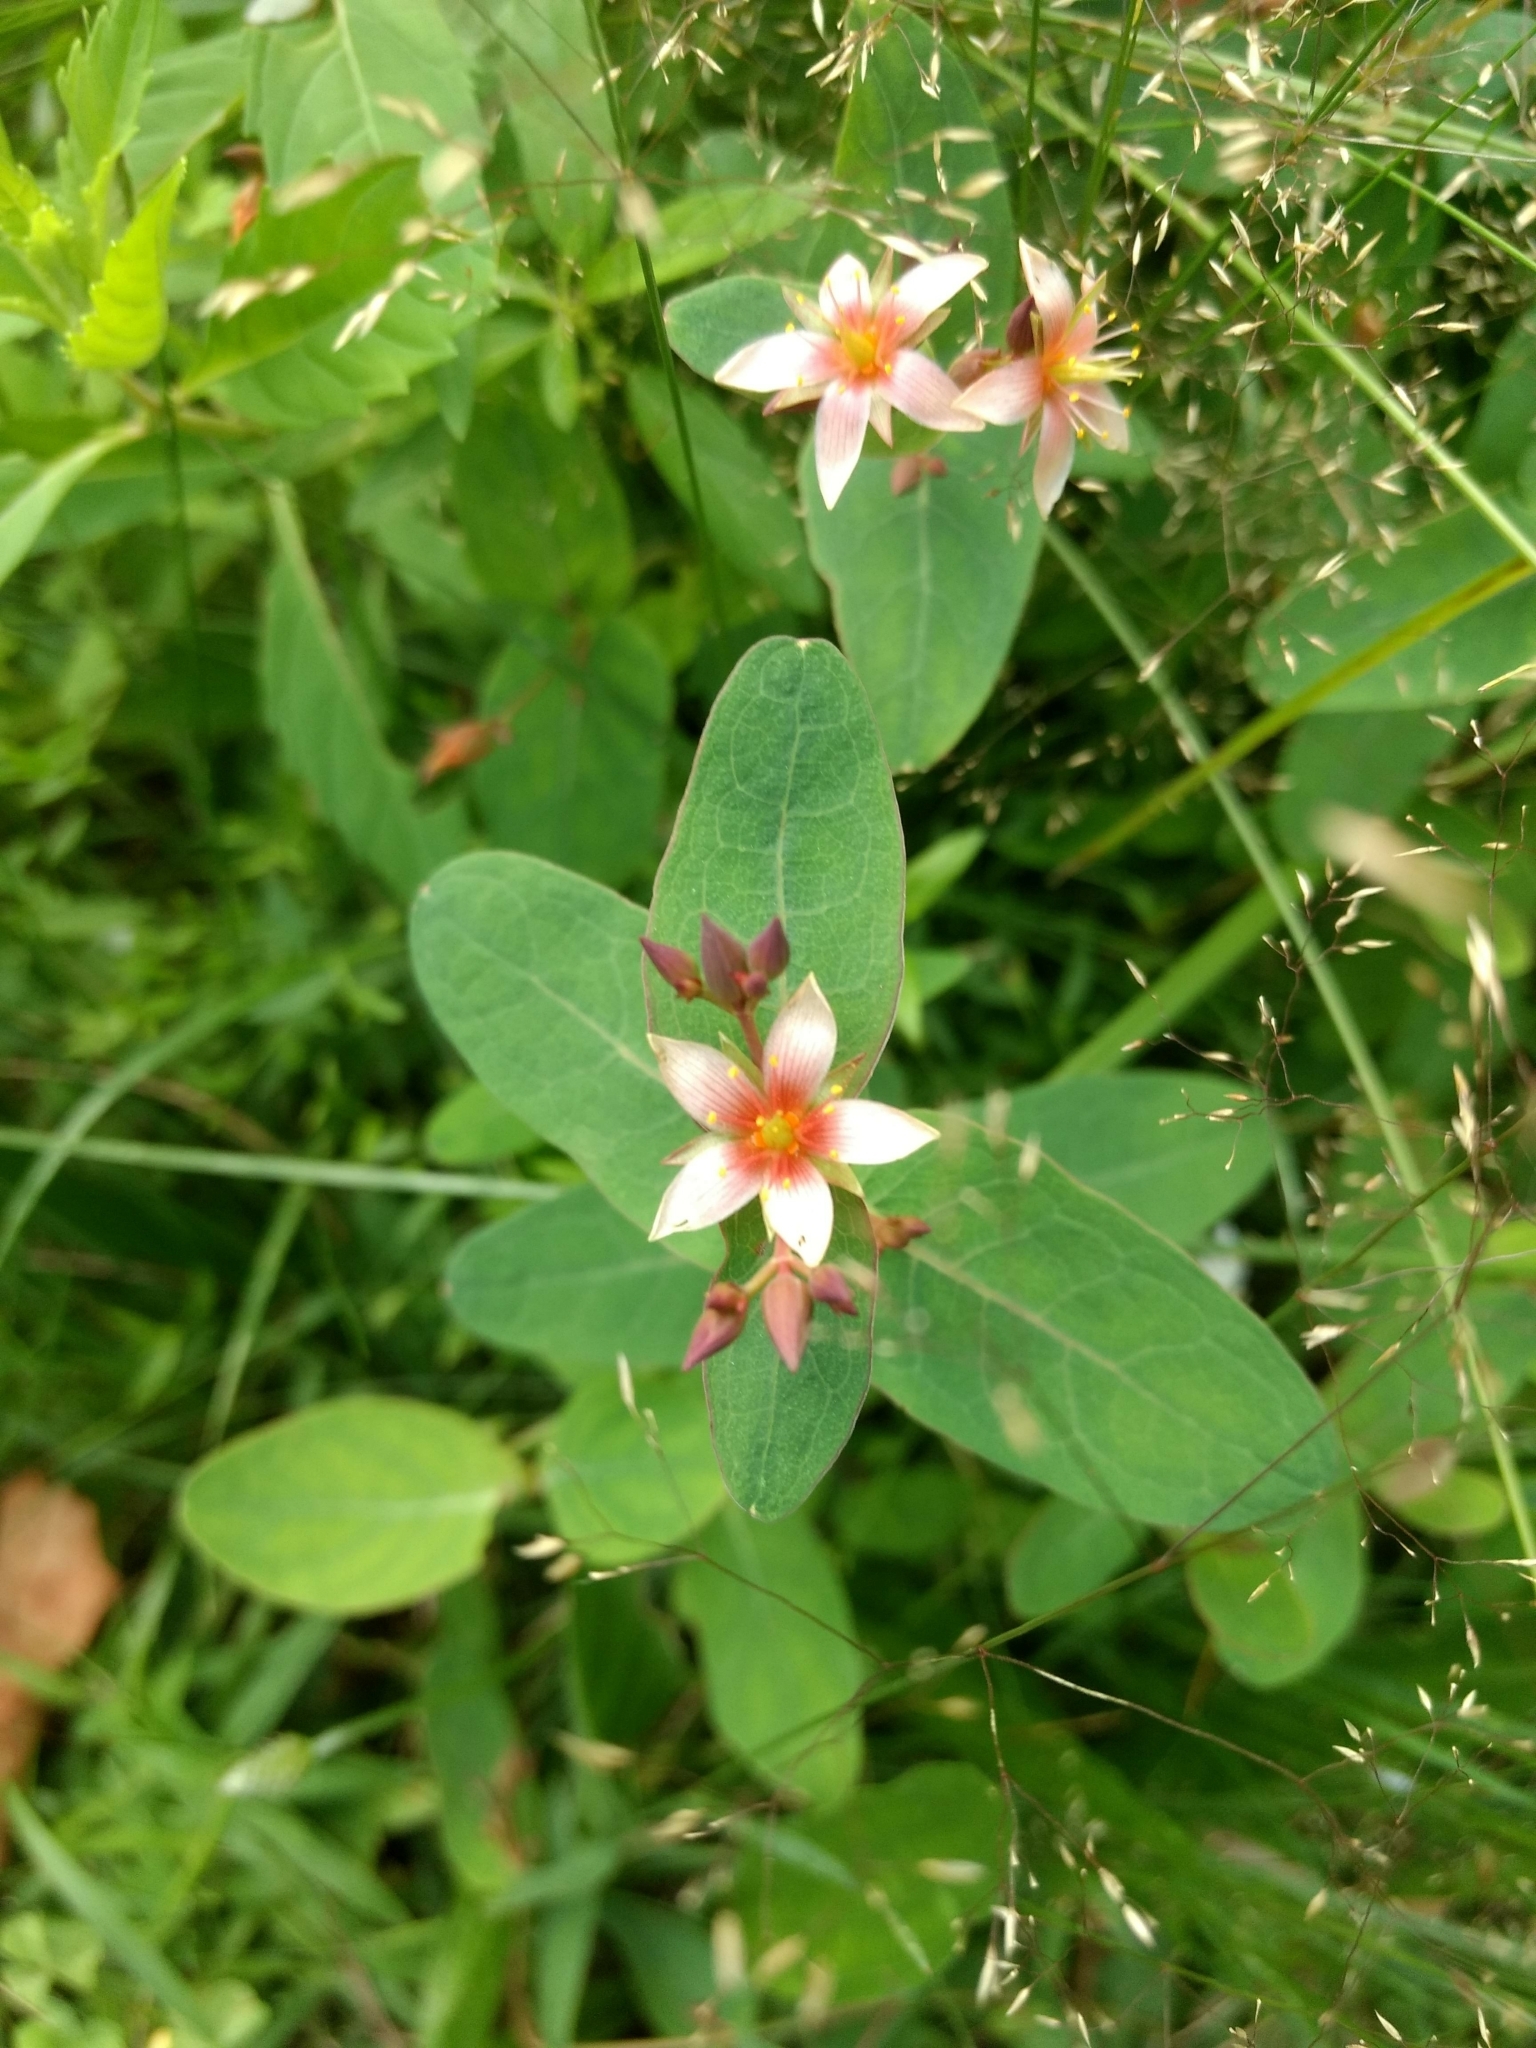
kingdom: Plantae
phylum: Tracheophyta
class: Magnoliopsida
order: Malpighiales
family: Hypericaceae
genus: Triadenum
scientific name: Triadenum virginicum
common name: Marsh st. john's-wort
